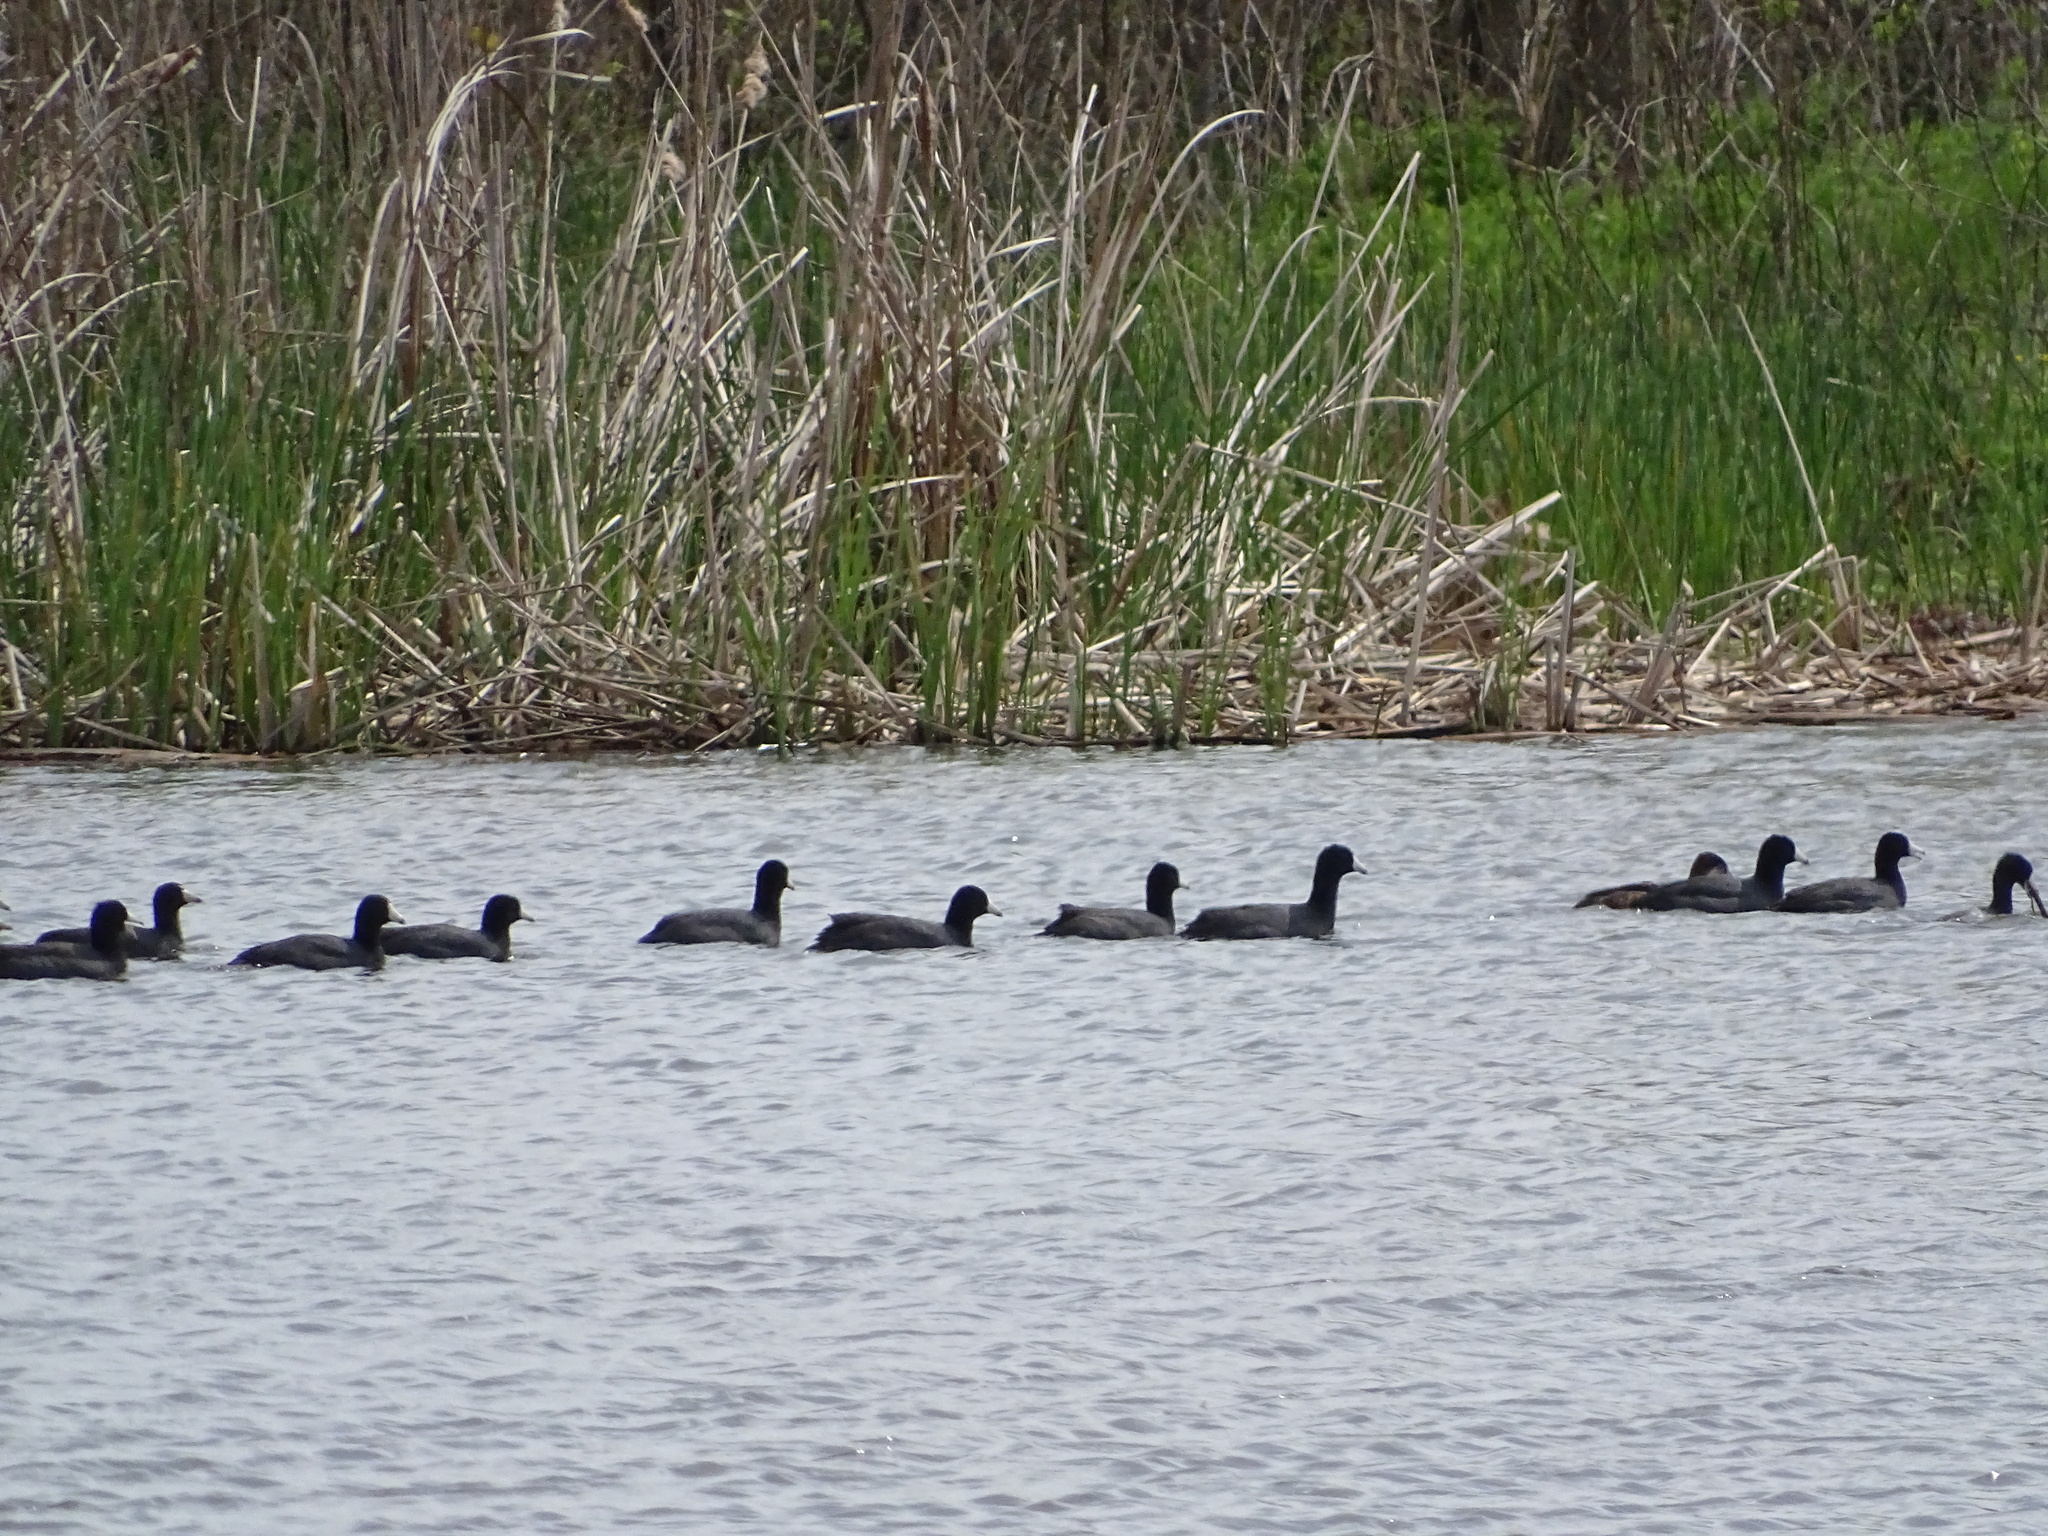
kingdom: Animalia
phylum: Chordata
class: Aves
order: Gruiformes
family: Rallidae
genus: Fulica
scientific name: Fulica americana
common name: American coot
